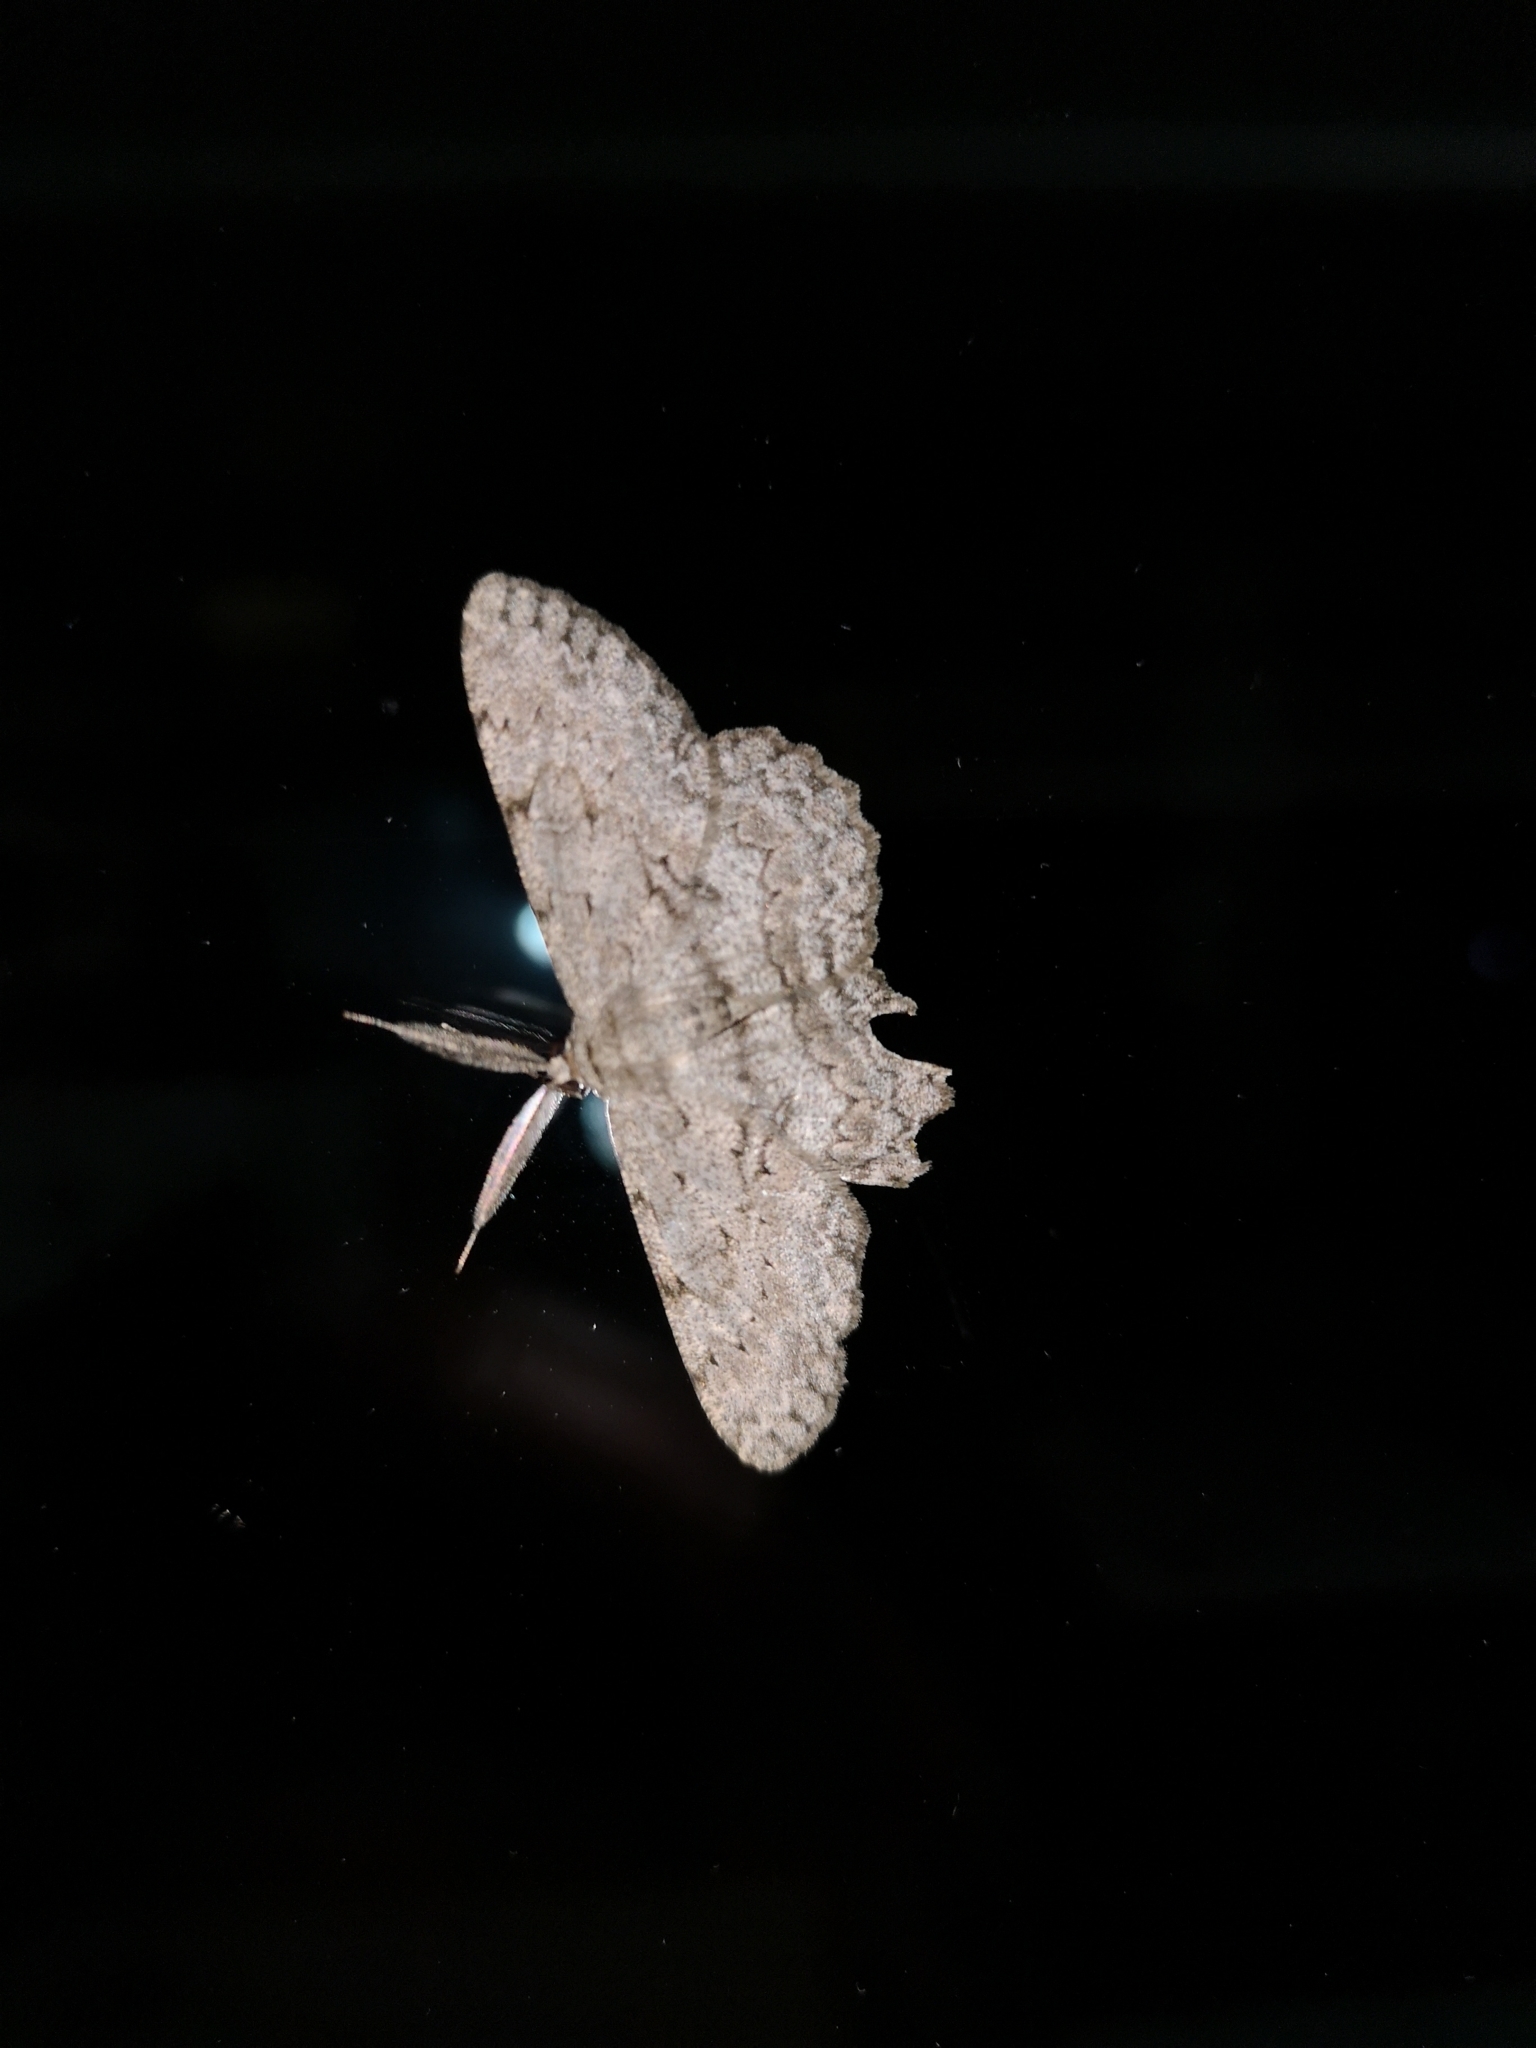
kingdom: Animalia
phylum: Arthropoda
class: Insecta
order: Lepidoptera
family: Geometridae
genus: Hypomecis
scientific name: Hypomecis punctinalis
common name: Pale oak beauty
